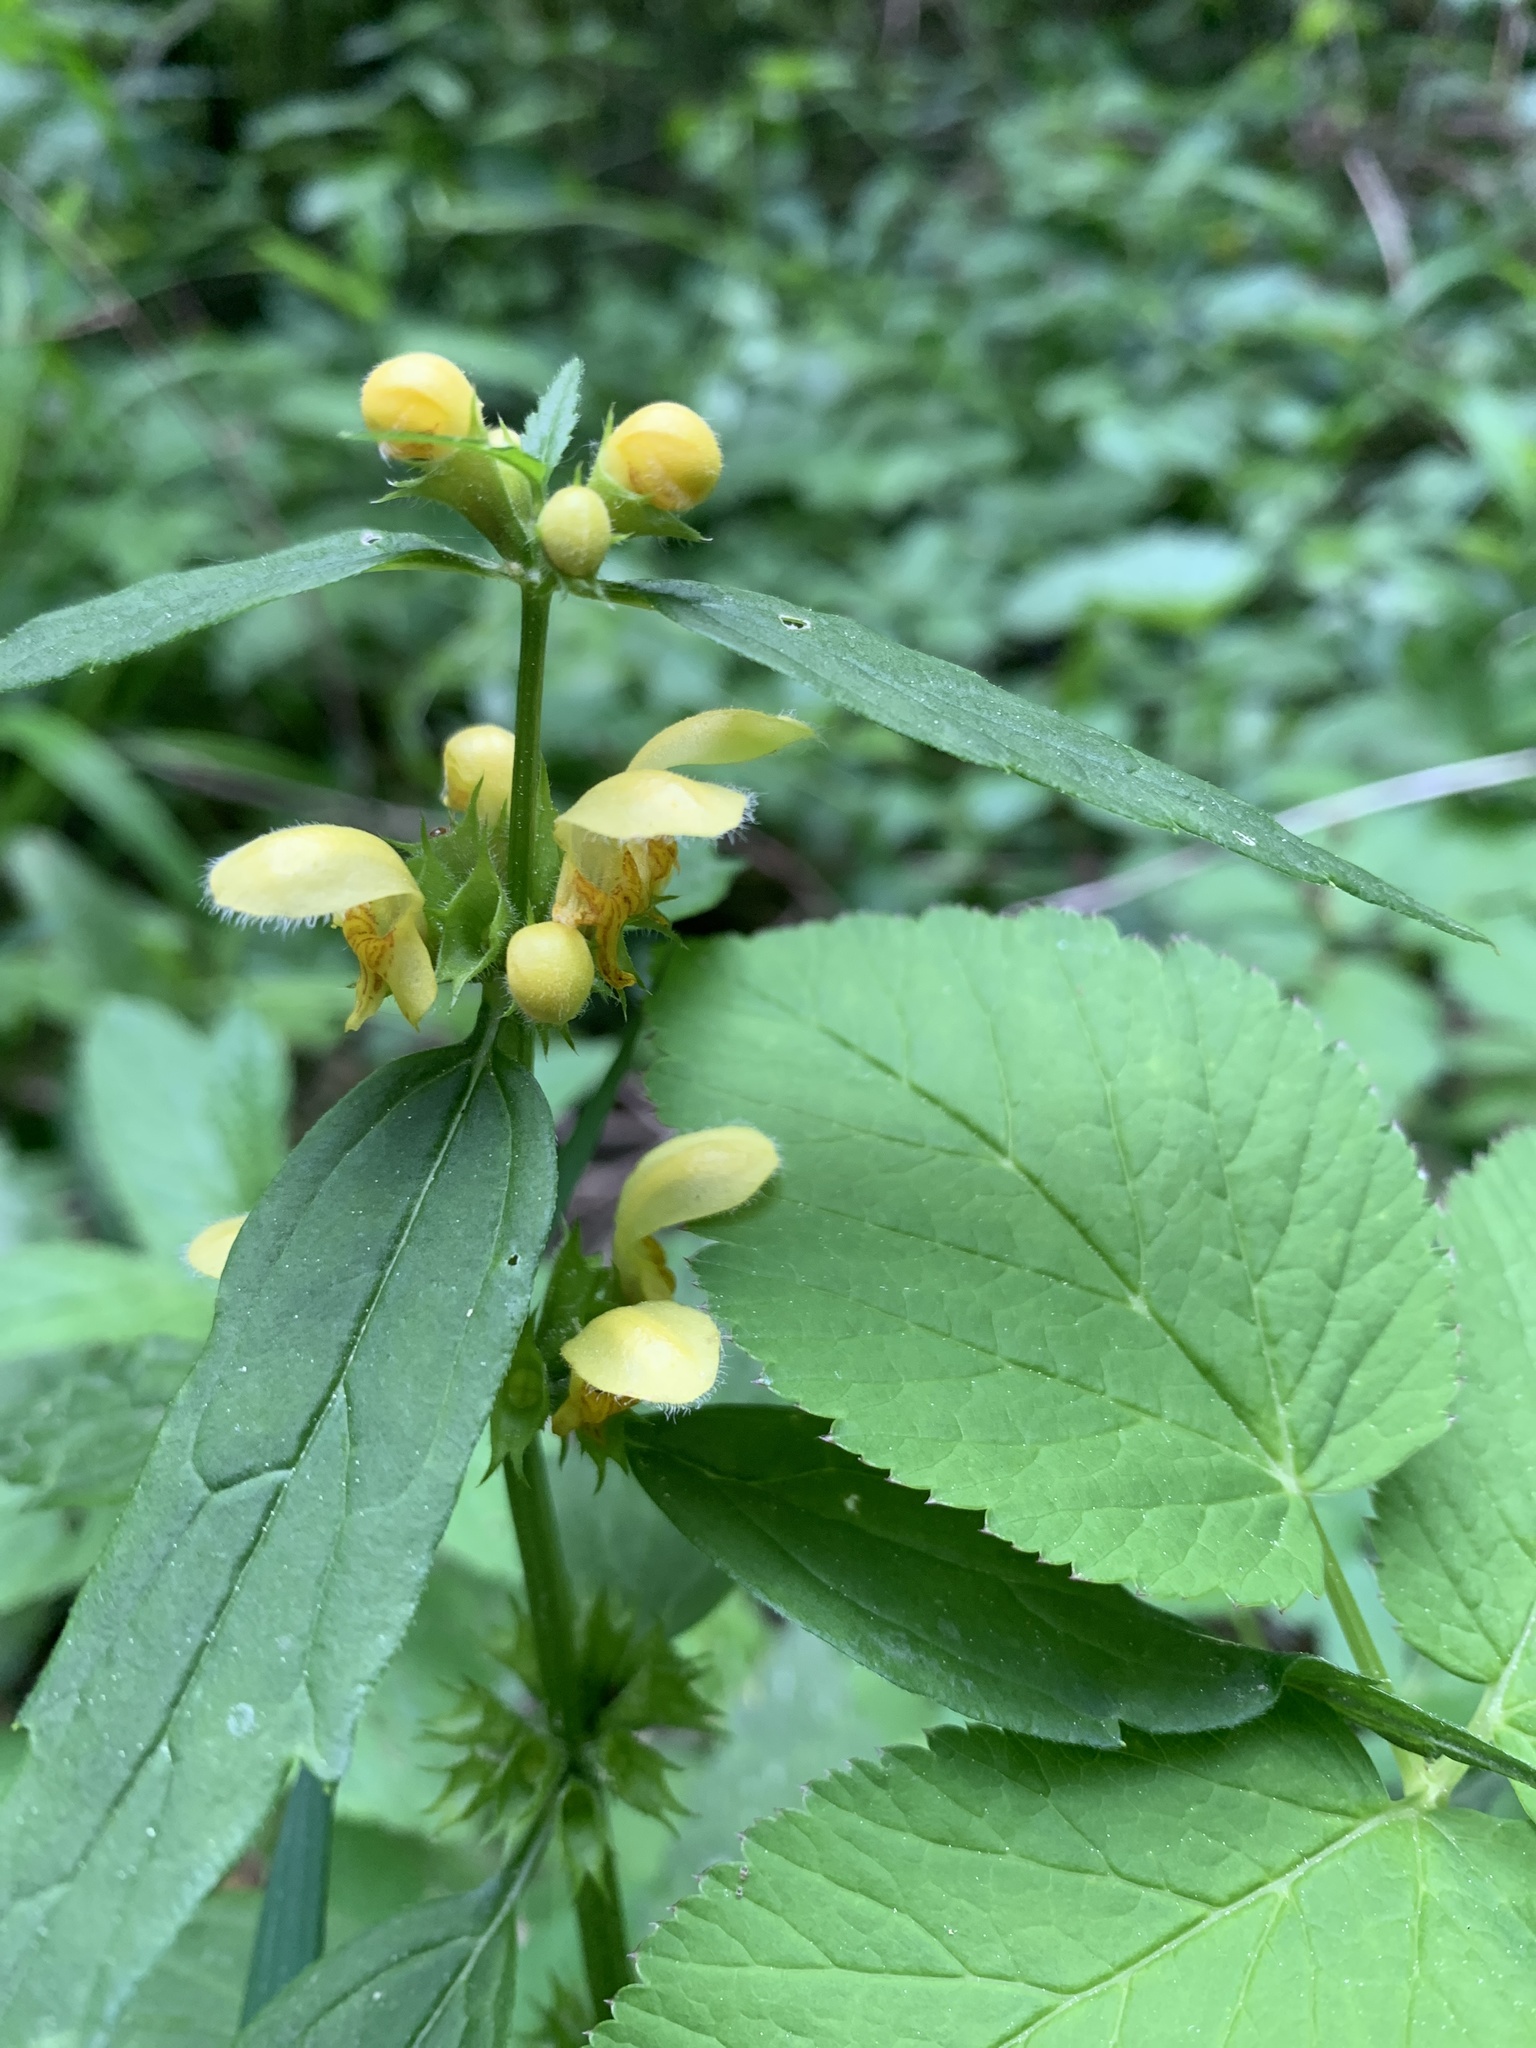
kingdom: Plantae
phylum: Tracheophyta
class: Magnoliopsida
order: Lamiales
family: Lamiaceae
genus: Lamium
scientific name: Lamium galeobdolon
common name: Yellow archangel
